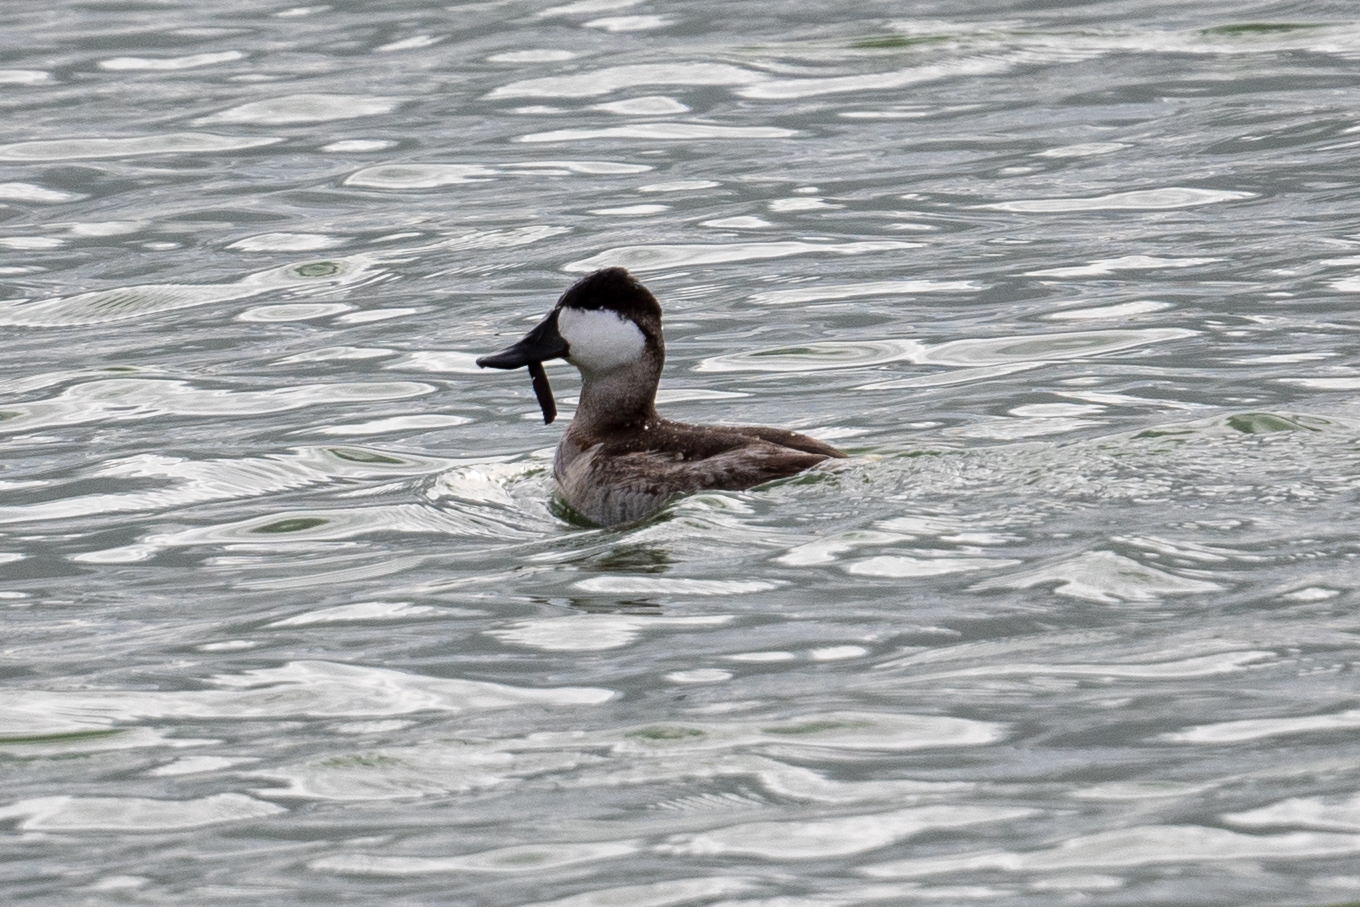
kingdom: Animalia
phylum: Chordata
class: Aves
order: Anseriformes
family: Anatidae
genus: Oxyura
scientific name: Oxyura jamaicensis
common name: Ruddy duck
